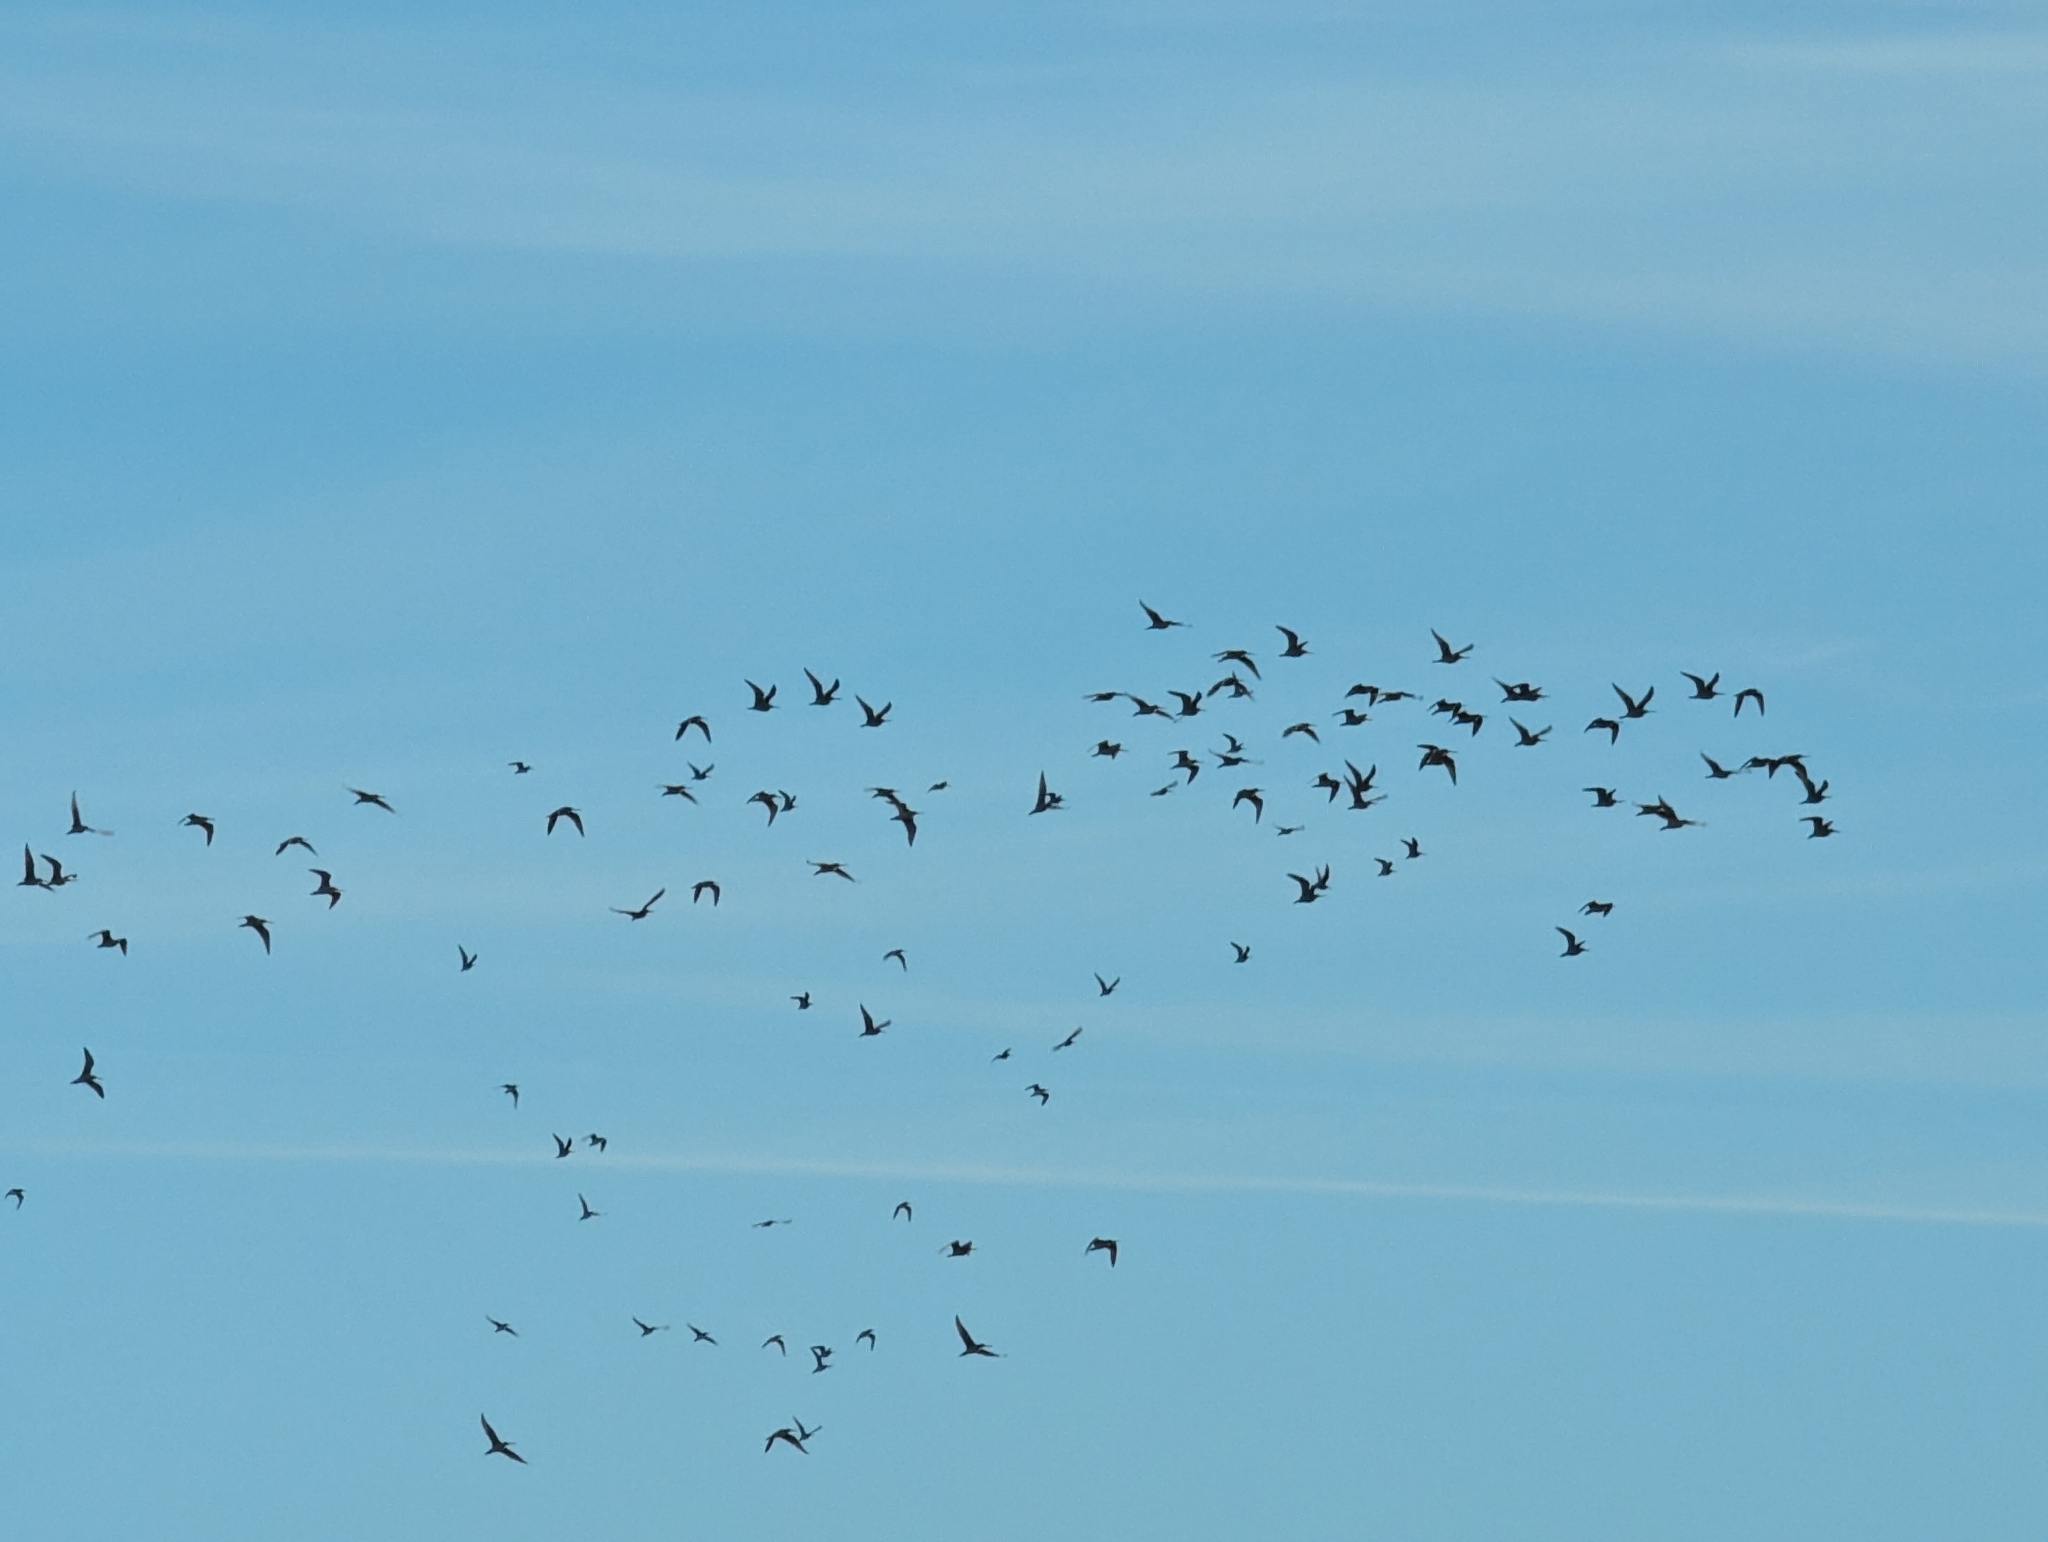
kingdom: Animalia
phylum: Chordata
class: Aves
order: Charadriiformes
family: Scolopacidae
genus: Numenius
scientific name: Numenius americanus
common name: Long-billed curlew
